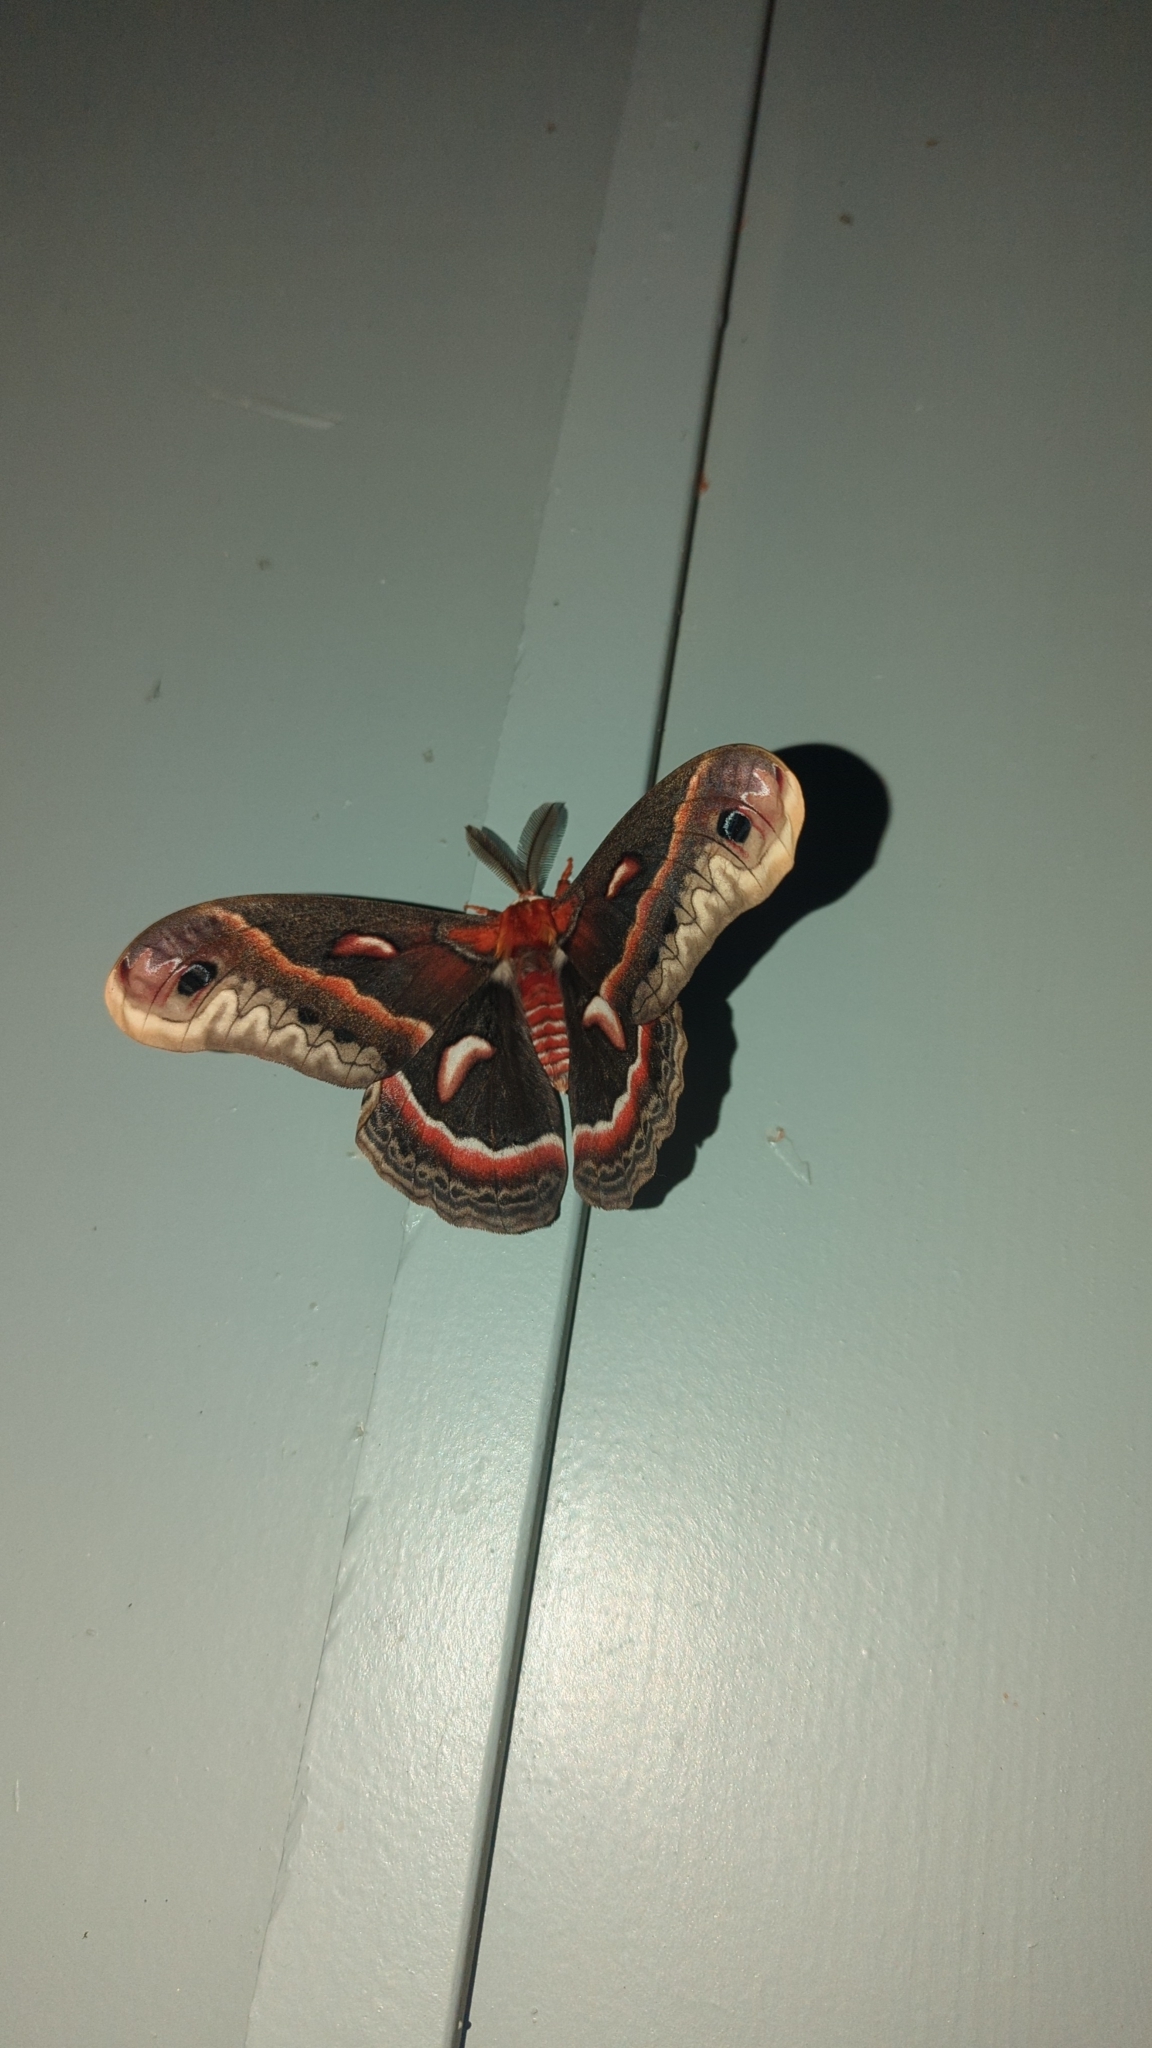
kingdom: Animalia
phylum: Arthropoda
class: Insecta
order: Lepidoptera
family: Saturniidae
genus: Hyalophora
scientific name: Hyalophora cecropia
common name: Cecropia silkmoth
